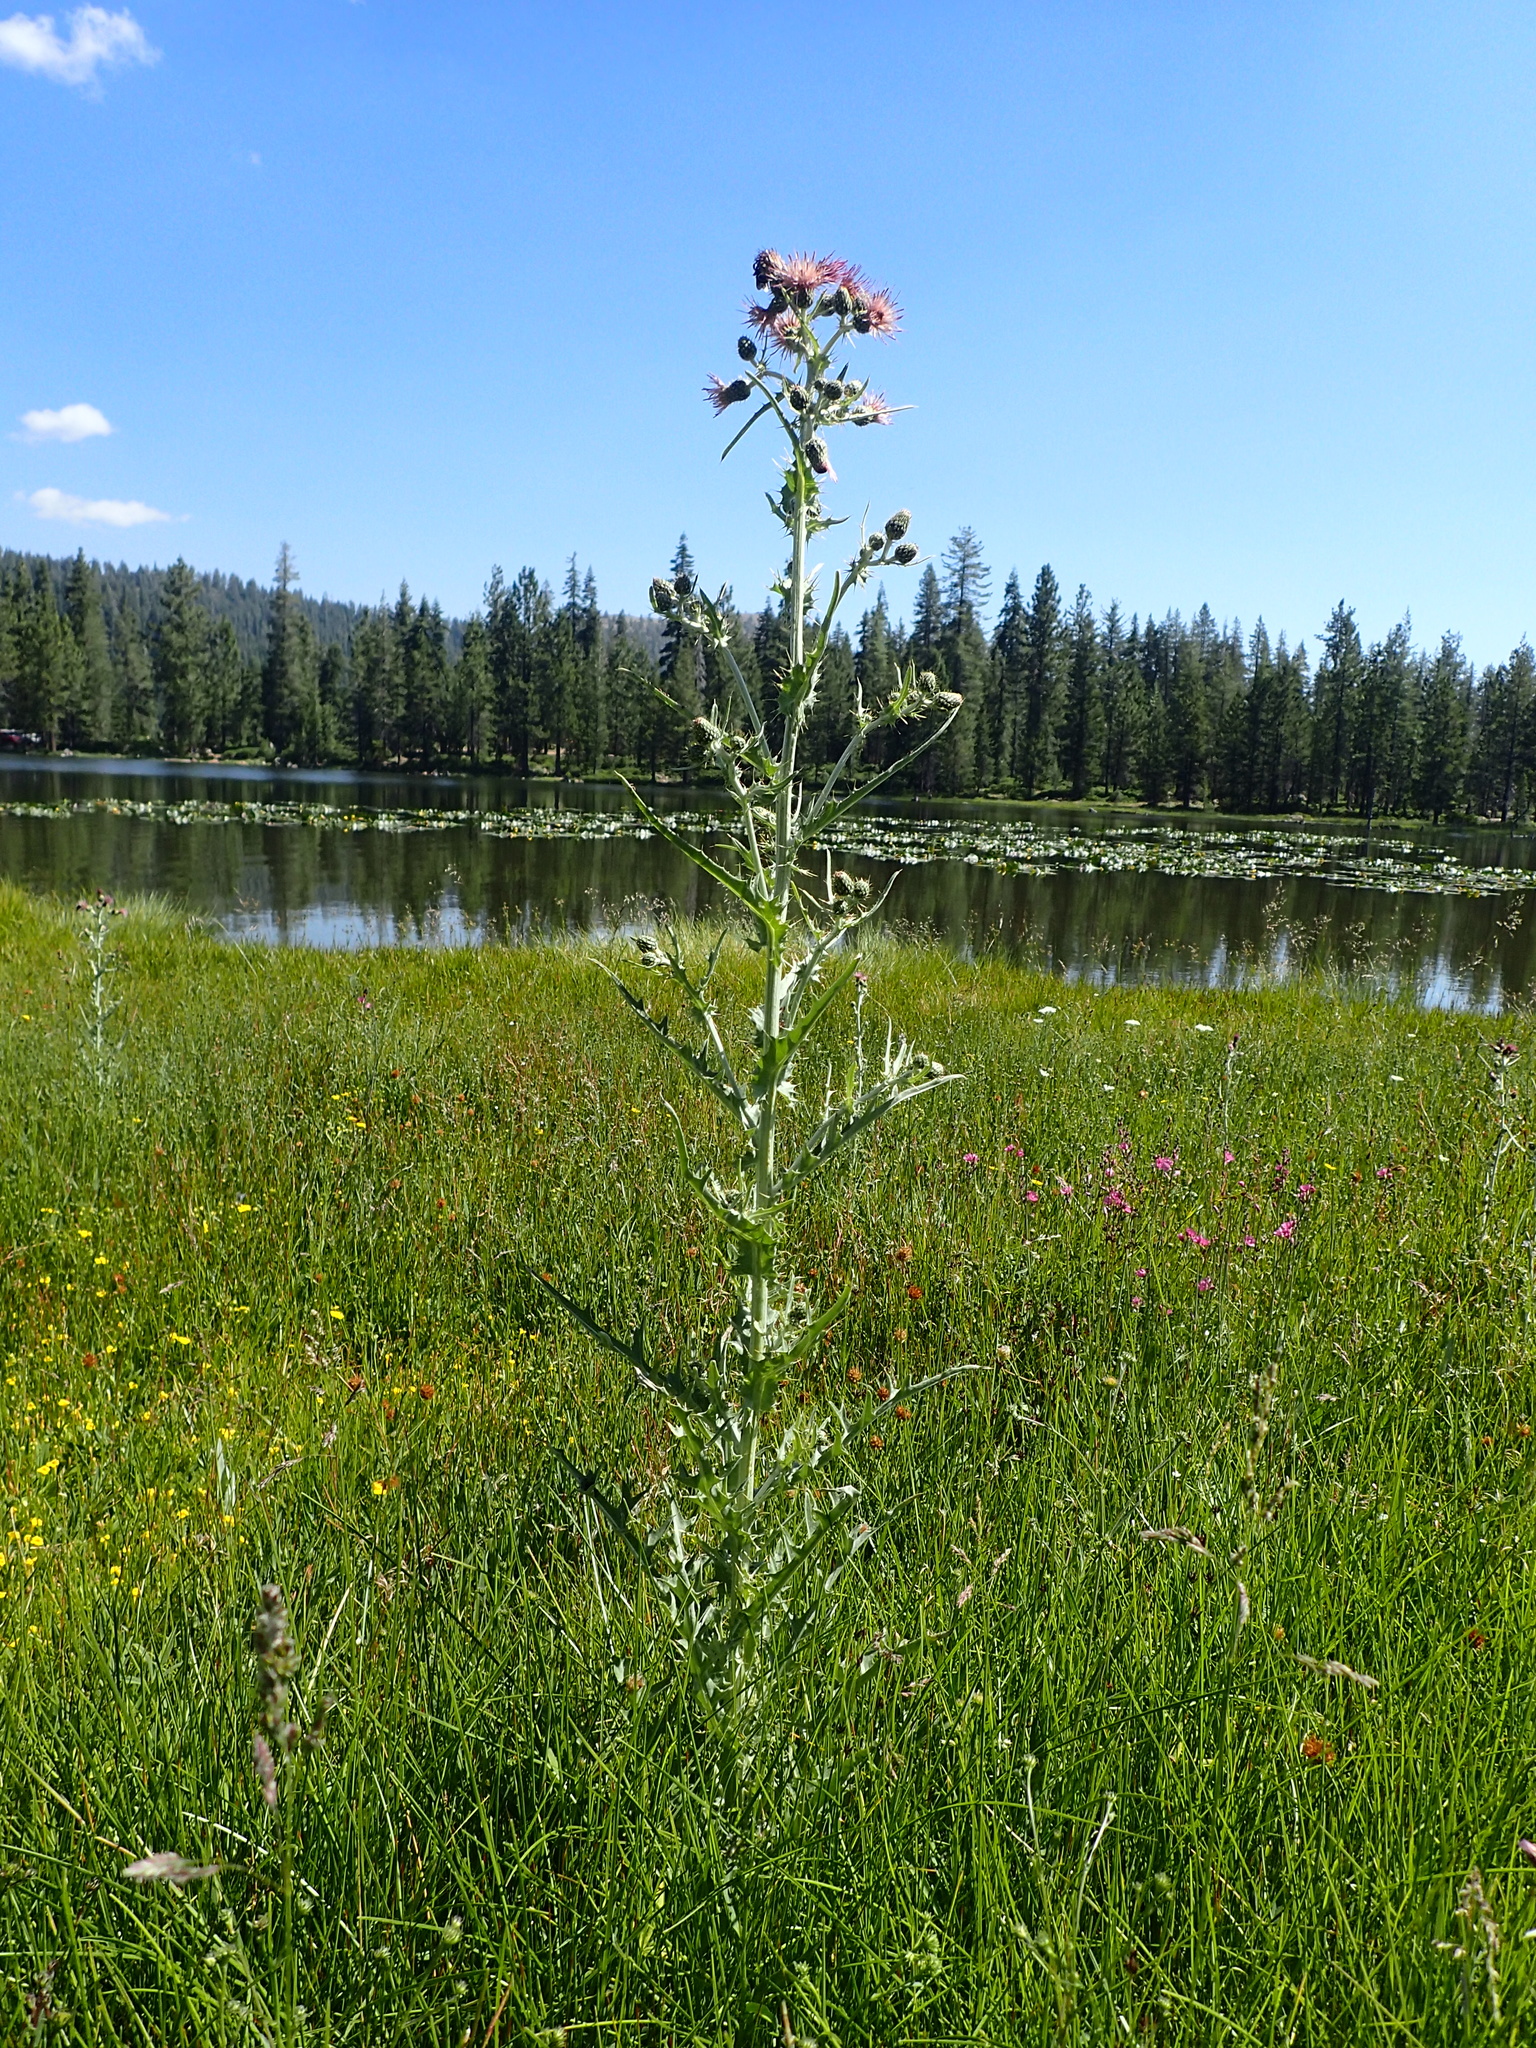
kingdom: Plantae
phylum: Tracheophyta
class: Magnoliopsida
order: Asterales
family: Asteraceae
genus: Cirsium
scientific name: Cirsium douglasii
